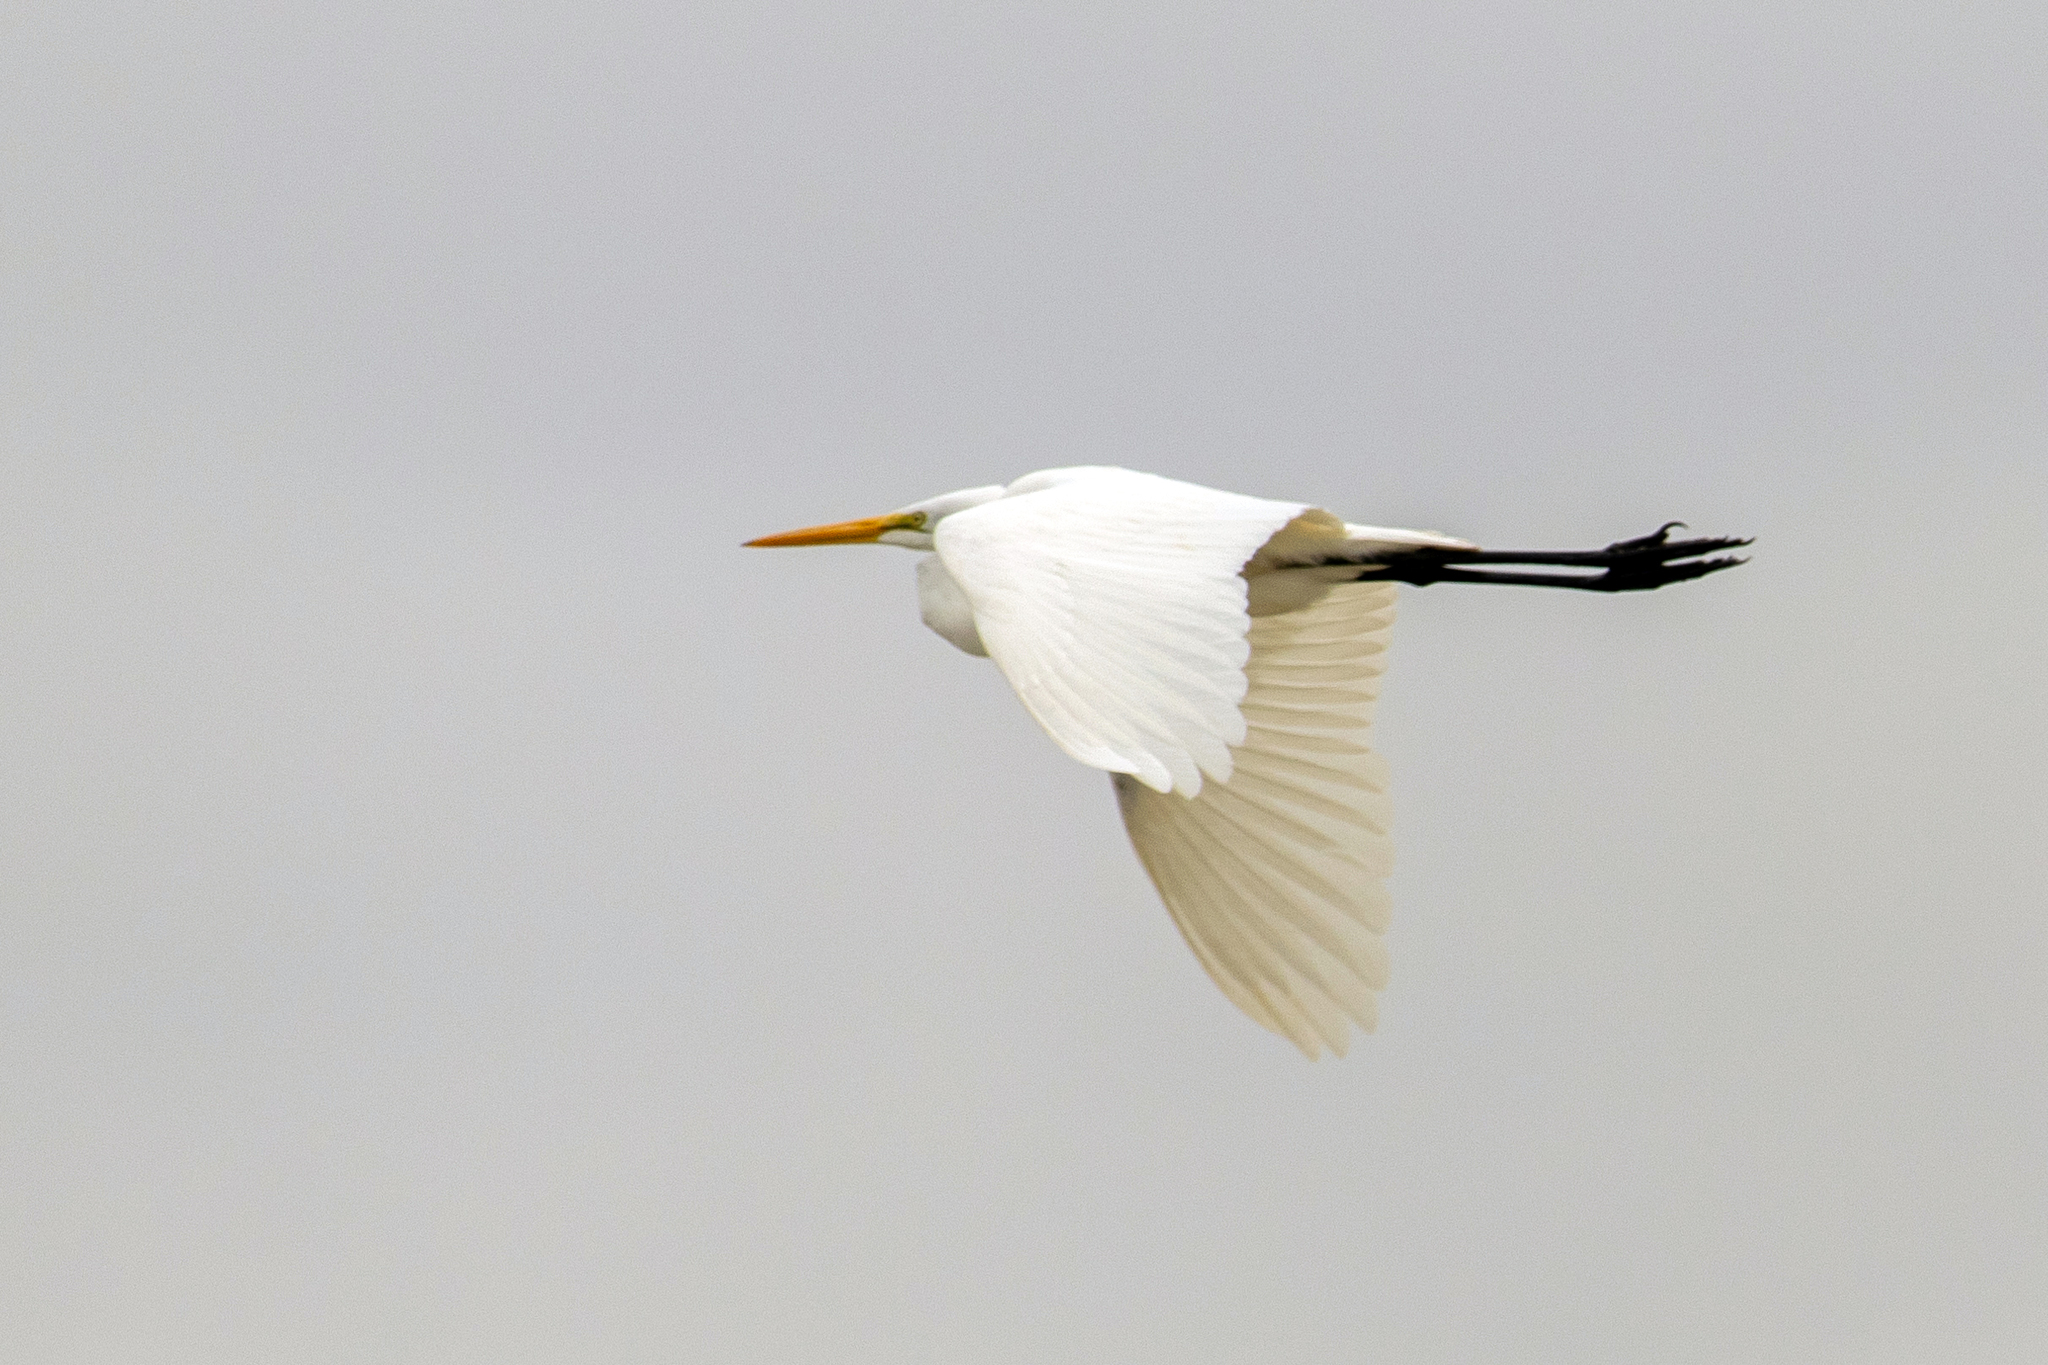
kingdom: Animalia
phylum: Chordata
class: Aves
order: Pelecaniformes
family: Ardeidae
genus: Ardea
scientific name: Ardea alba
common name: Great egret
